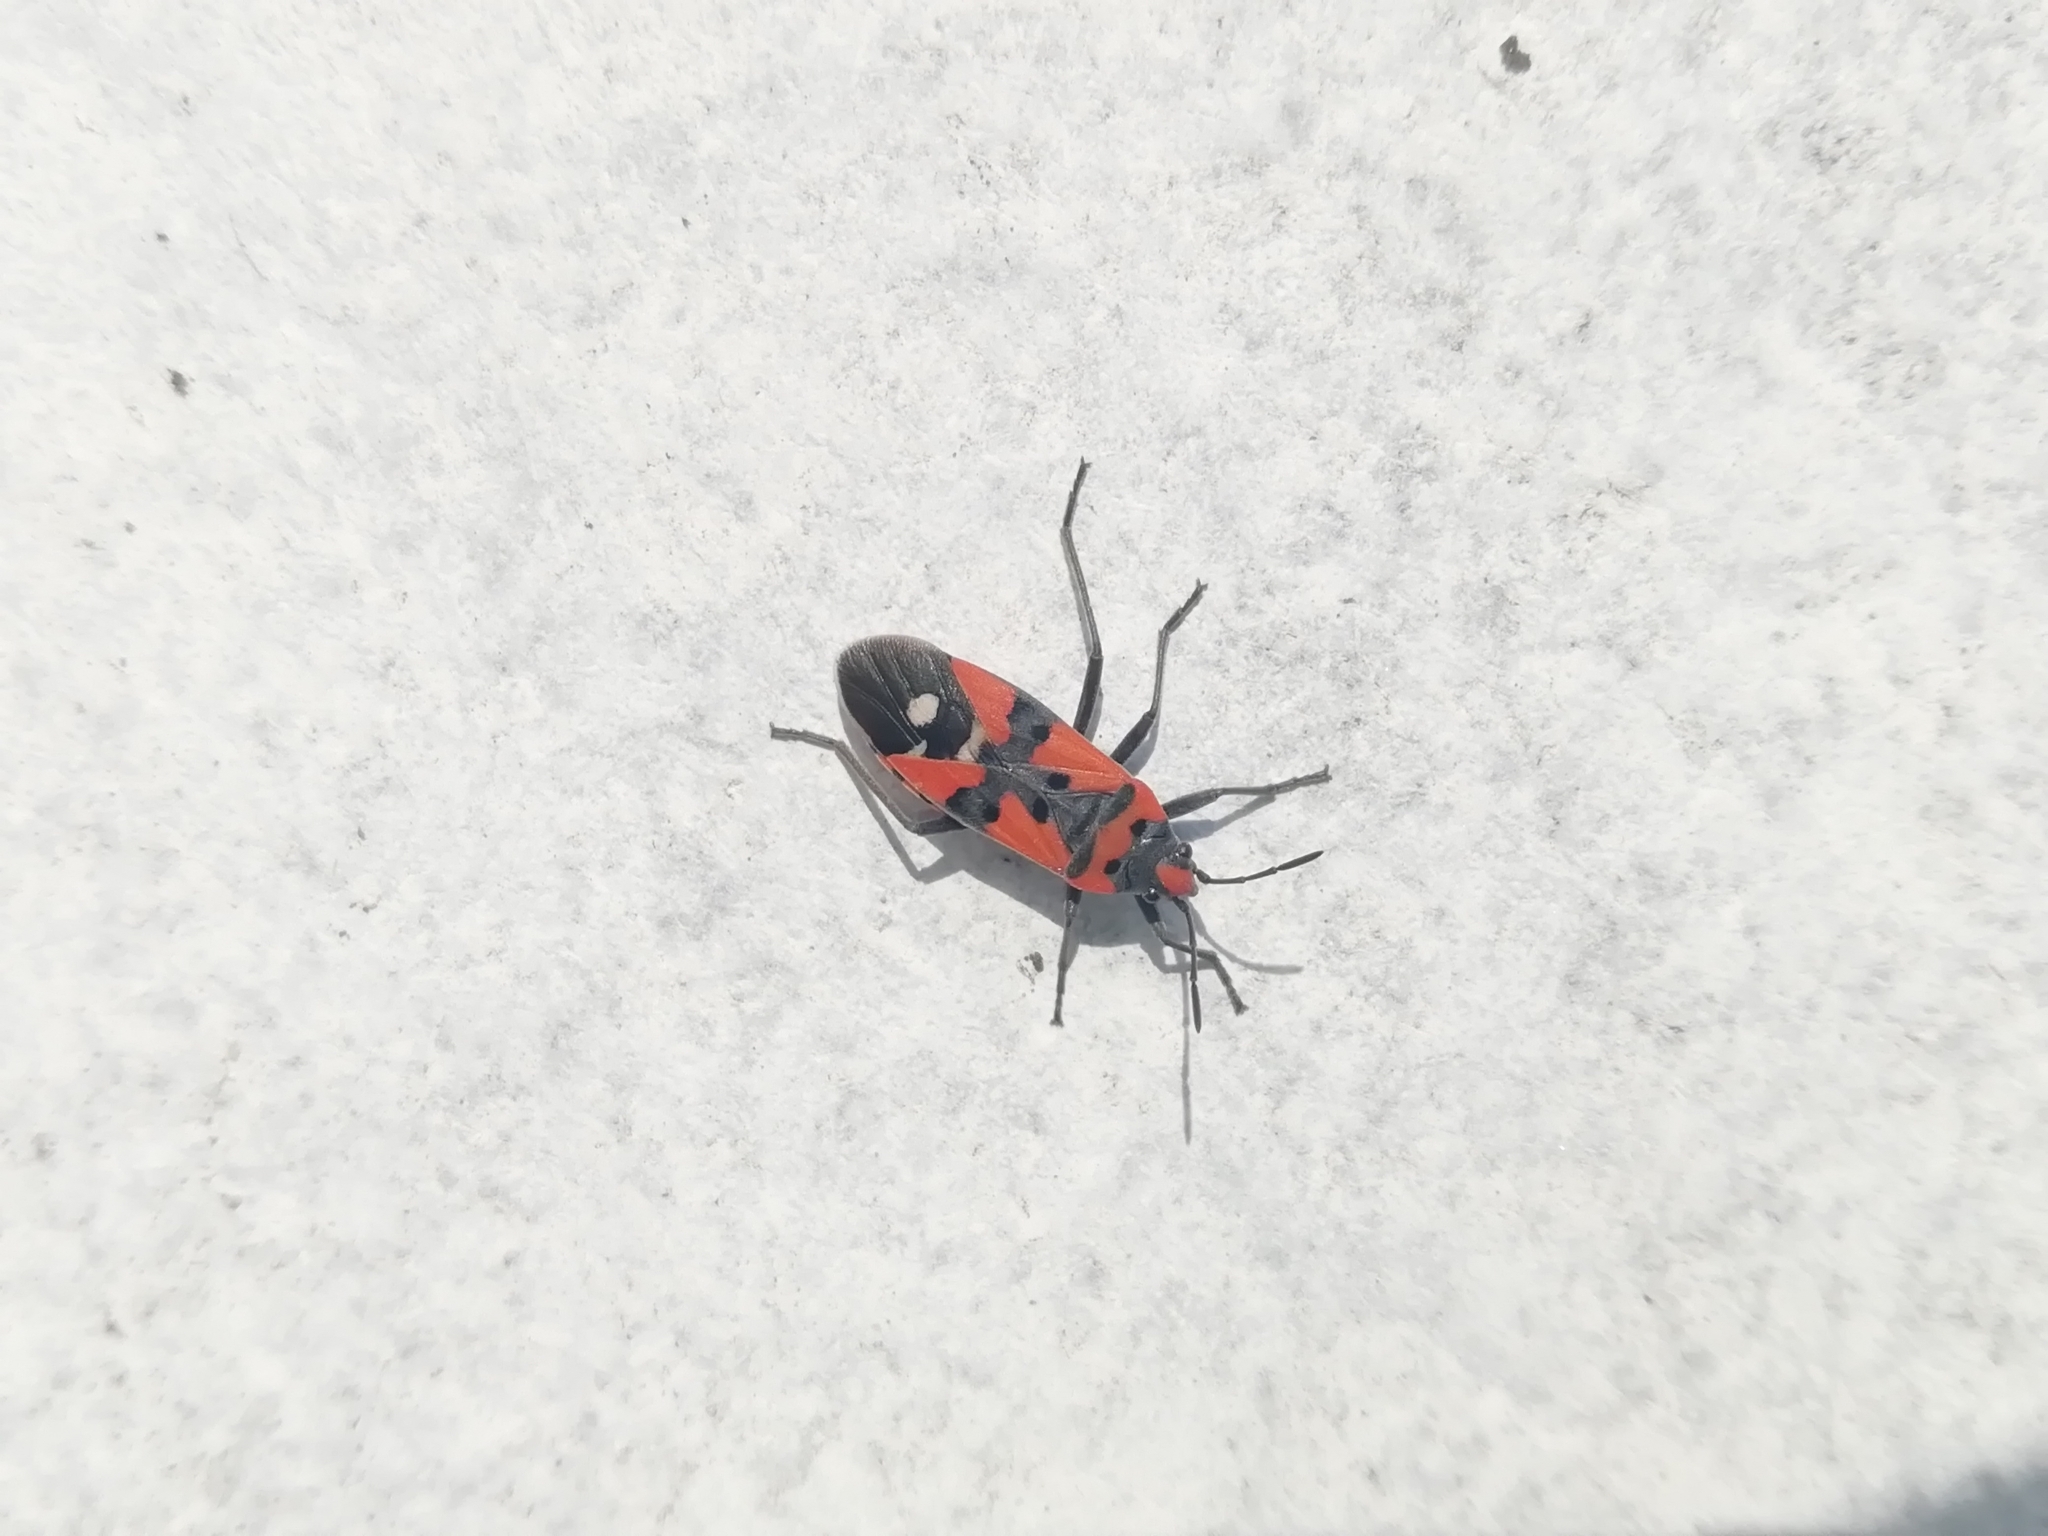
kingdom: Animalia
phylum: Arthropoda
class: Insecta
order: Hemiptera
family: Lygaeidae
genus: Lygaeus
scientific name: Lygaeus equestris
